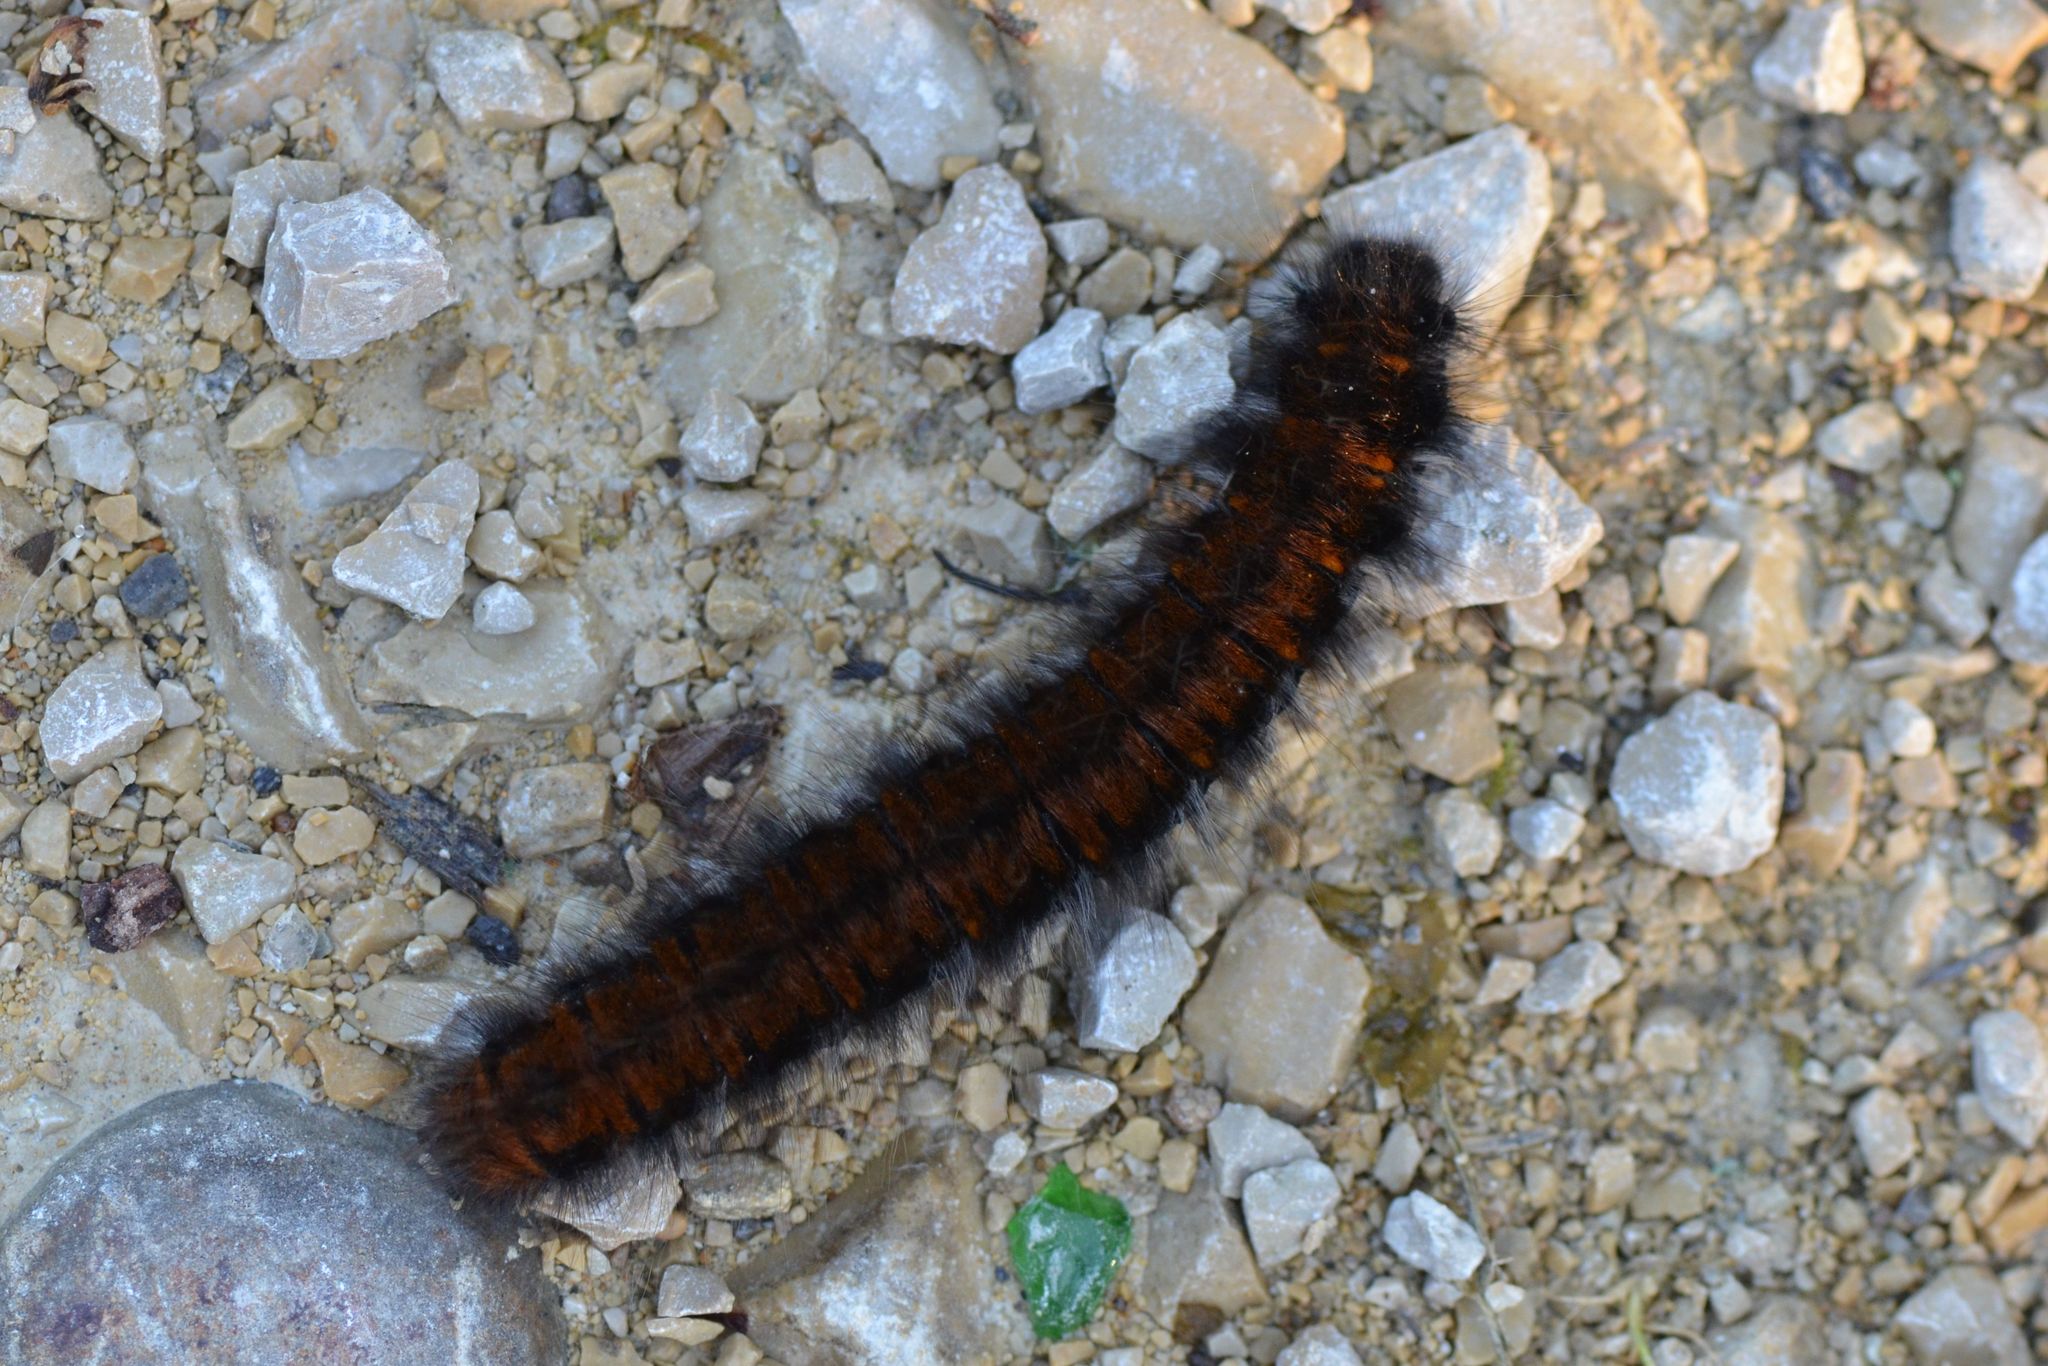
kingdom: Animalia
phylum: Arthropoda
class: Insecta
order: Lepidoptera
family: Lasiocampidae
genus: Macrothylacia
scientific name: Macrothylacia rubi
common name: Fox moth
